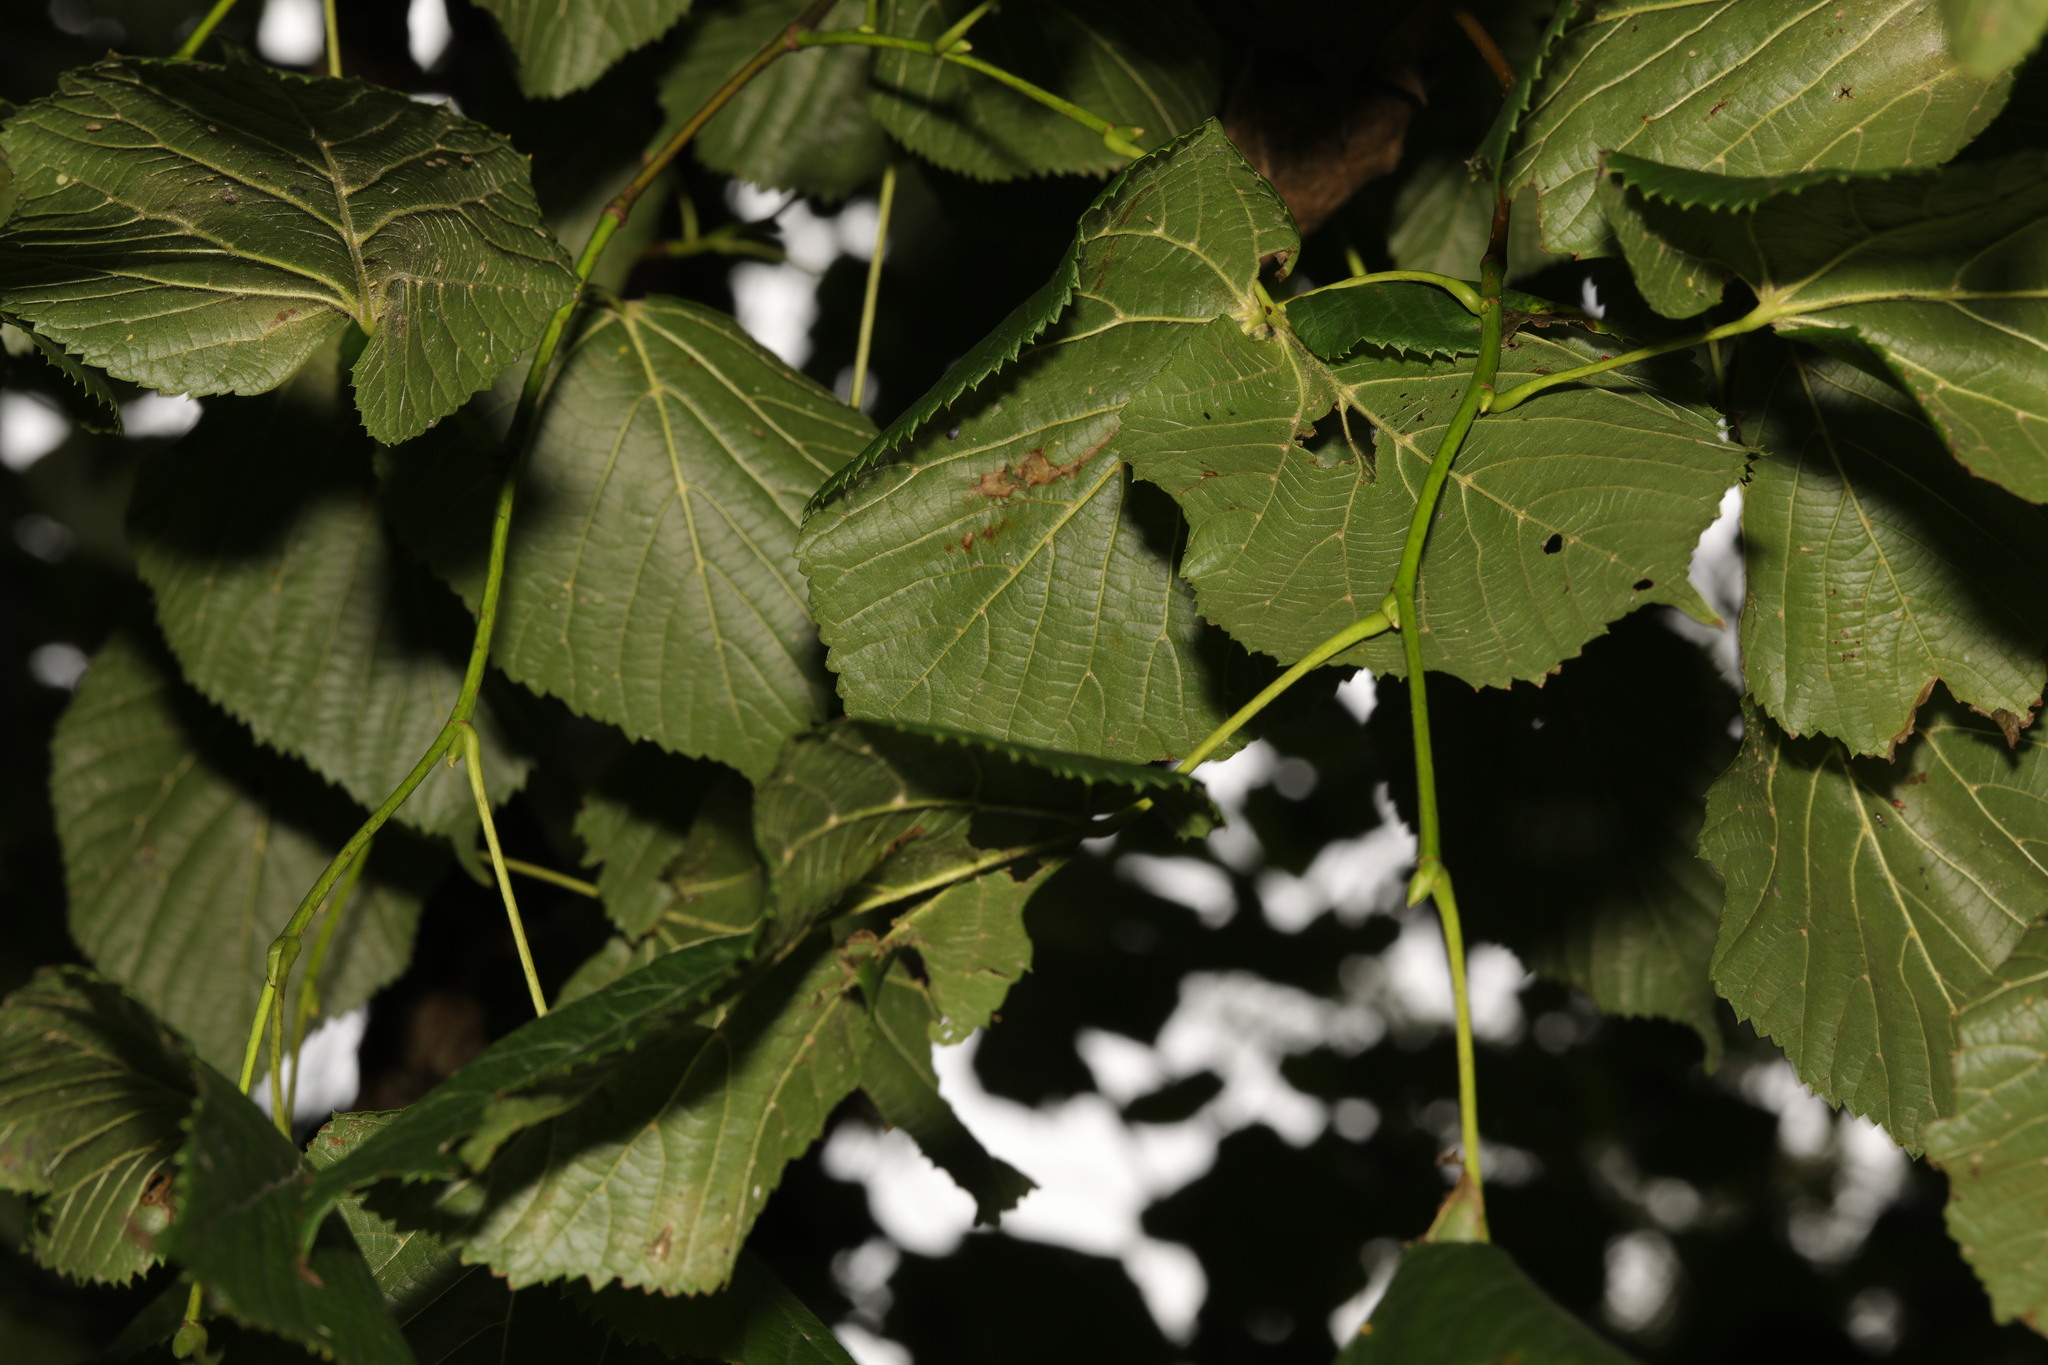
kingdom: Plantae
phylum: Tracheophyta
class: Magnoliopsida
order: Malvales
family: Malvaceae
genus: Tilia
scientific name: Tilia europaea
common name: European linden
